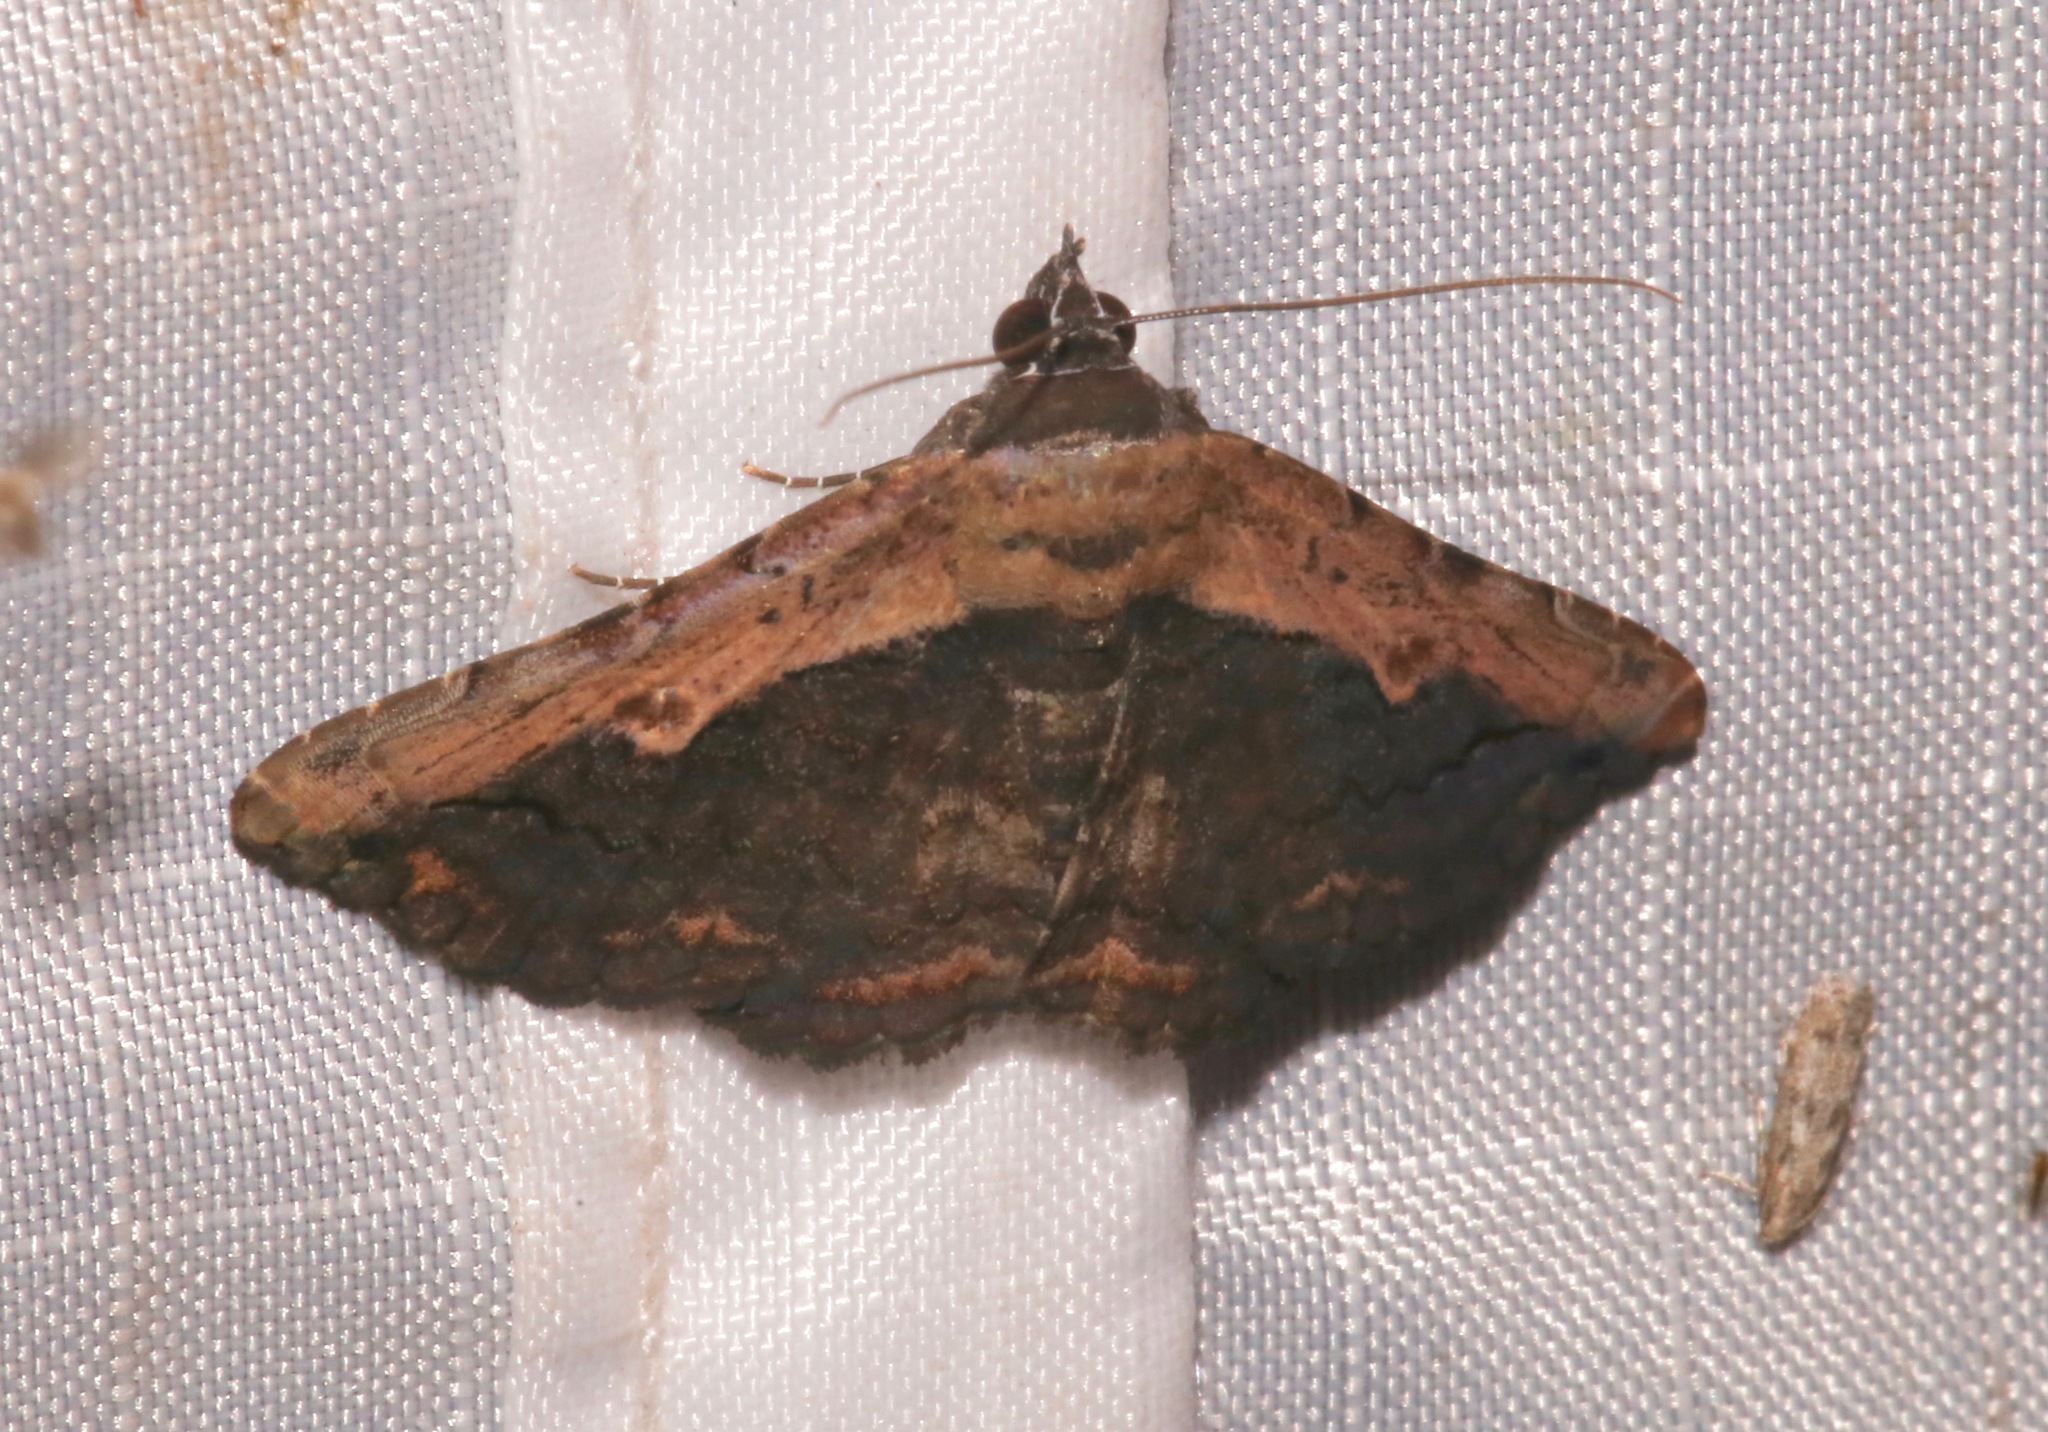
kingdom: Animalia
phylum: Arthropoda
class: Insecta
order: Lepidoptera
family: Erebidae
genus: Selenisa
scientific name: Selenisa sueroides
